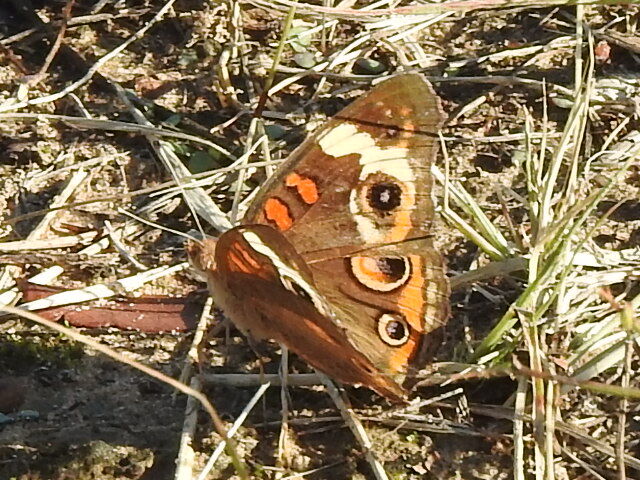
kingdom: Animalia
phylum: Arthropoda
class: Insecta
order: Lepidoptera
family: Nymphalidae
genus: Junonia
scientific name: Junonia coenia
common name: Common buckeye
